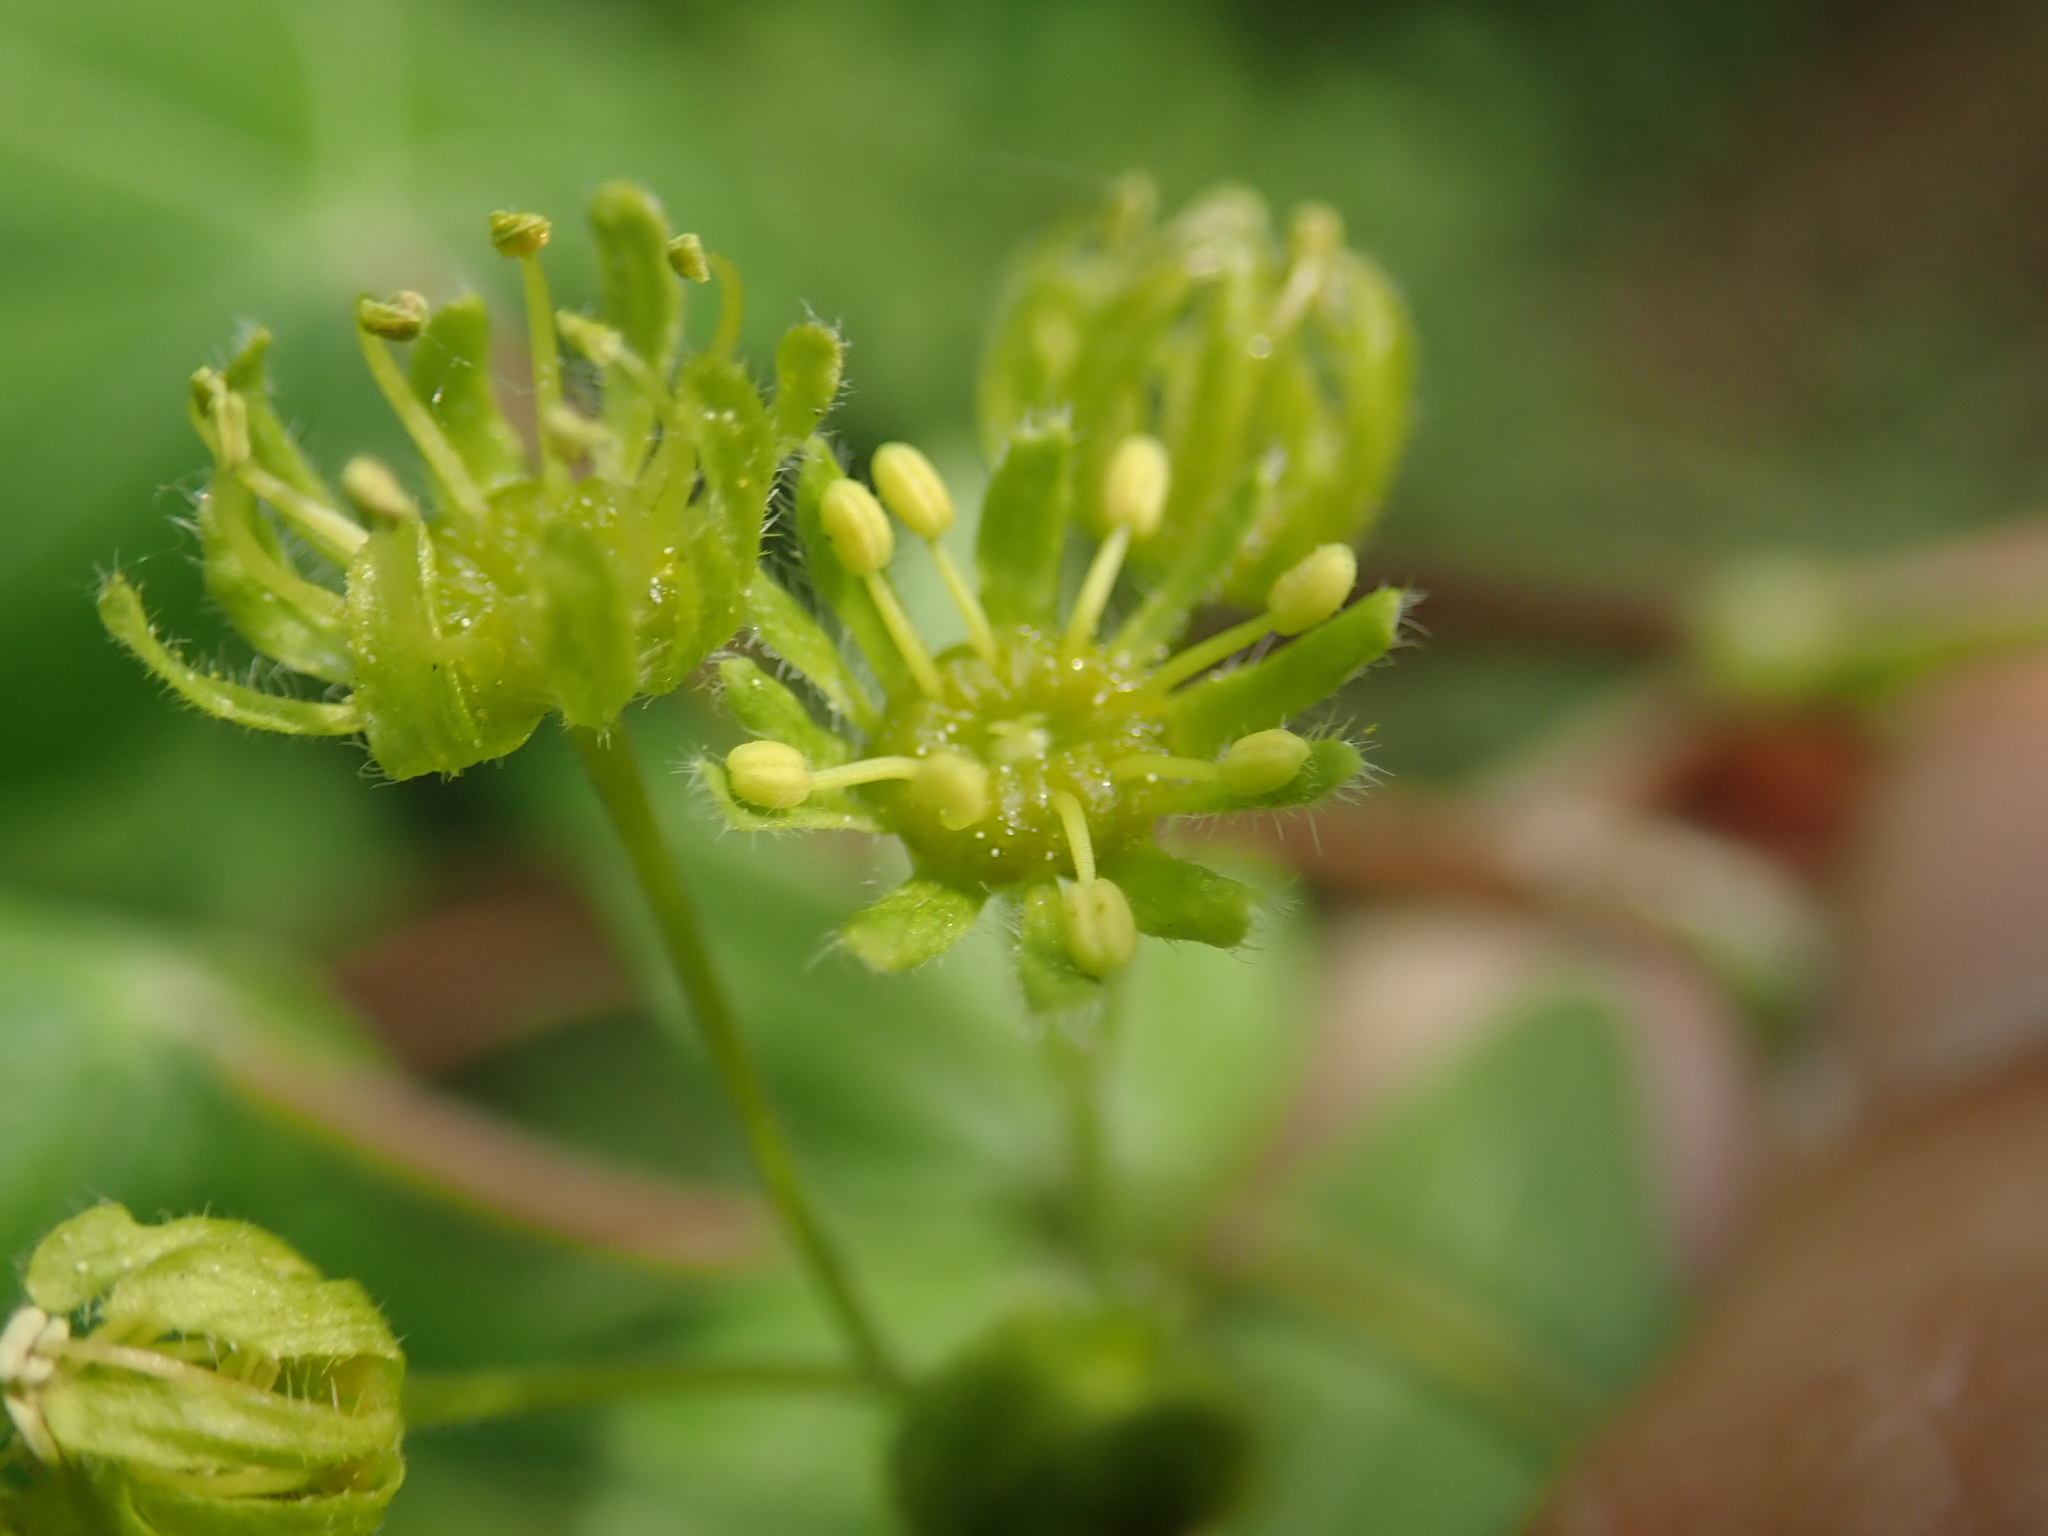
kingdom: Plantae
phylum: Tracheophyta
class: Magnoliopsida
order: Sapindales
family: Sapindaceae
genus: Acer
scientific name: Acer campestre
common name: Field maple
